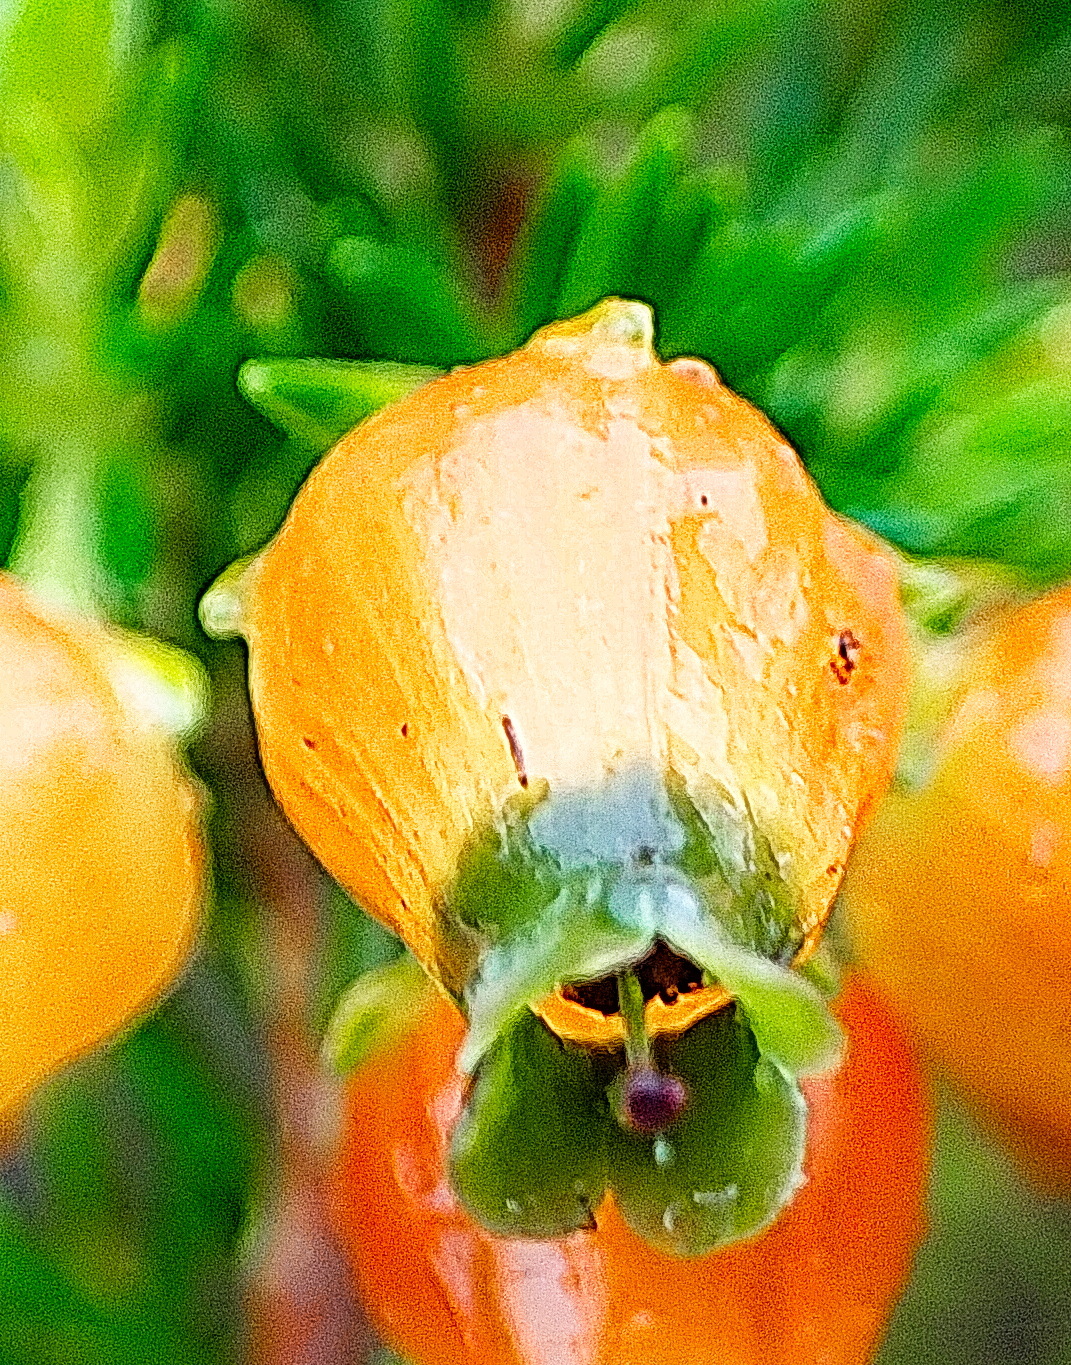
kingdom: Plantae
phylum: Tracheophyta
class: Magnoliopsida
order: Ericales
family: Ericaceae
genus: Erica
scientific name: Erica blenna
